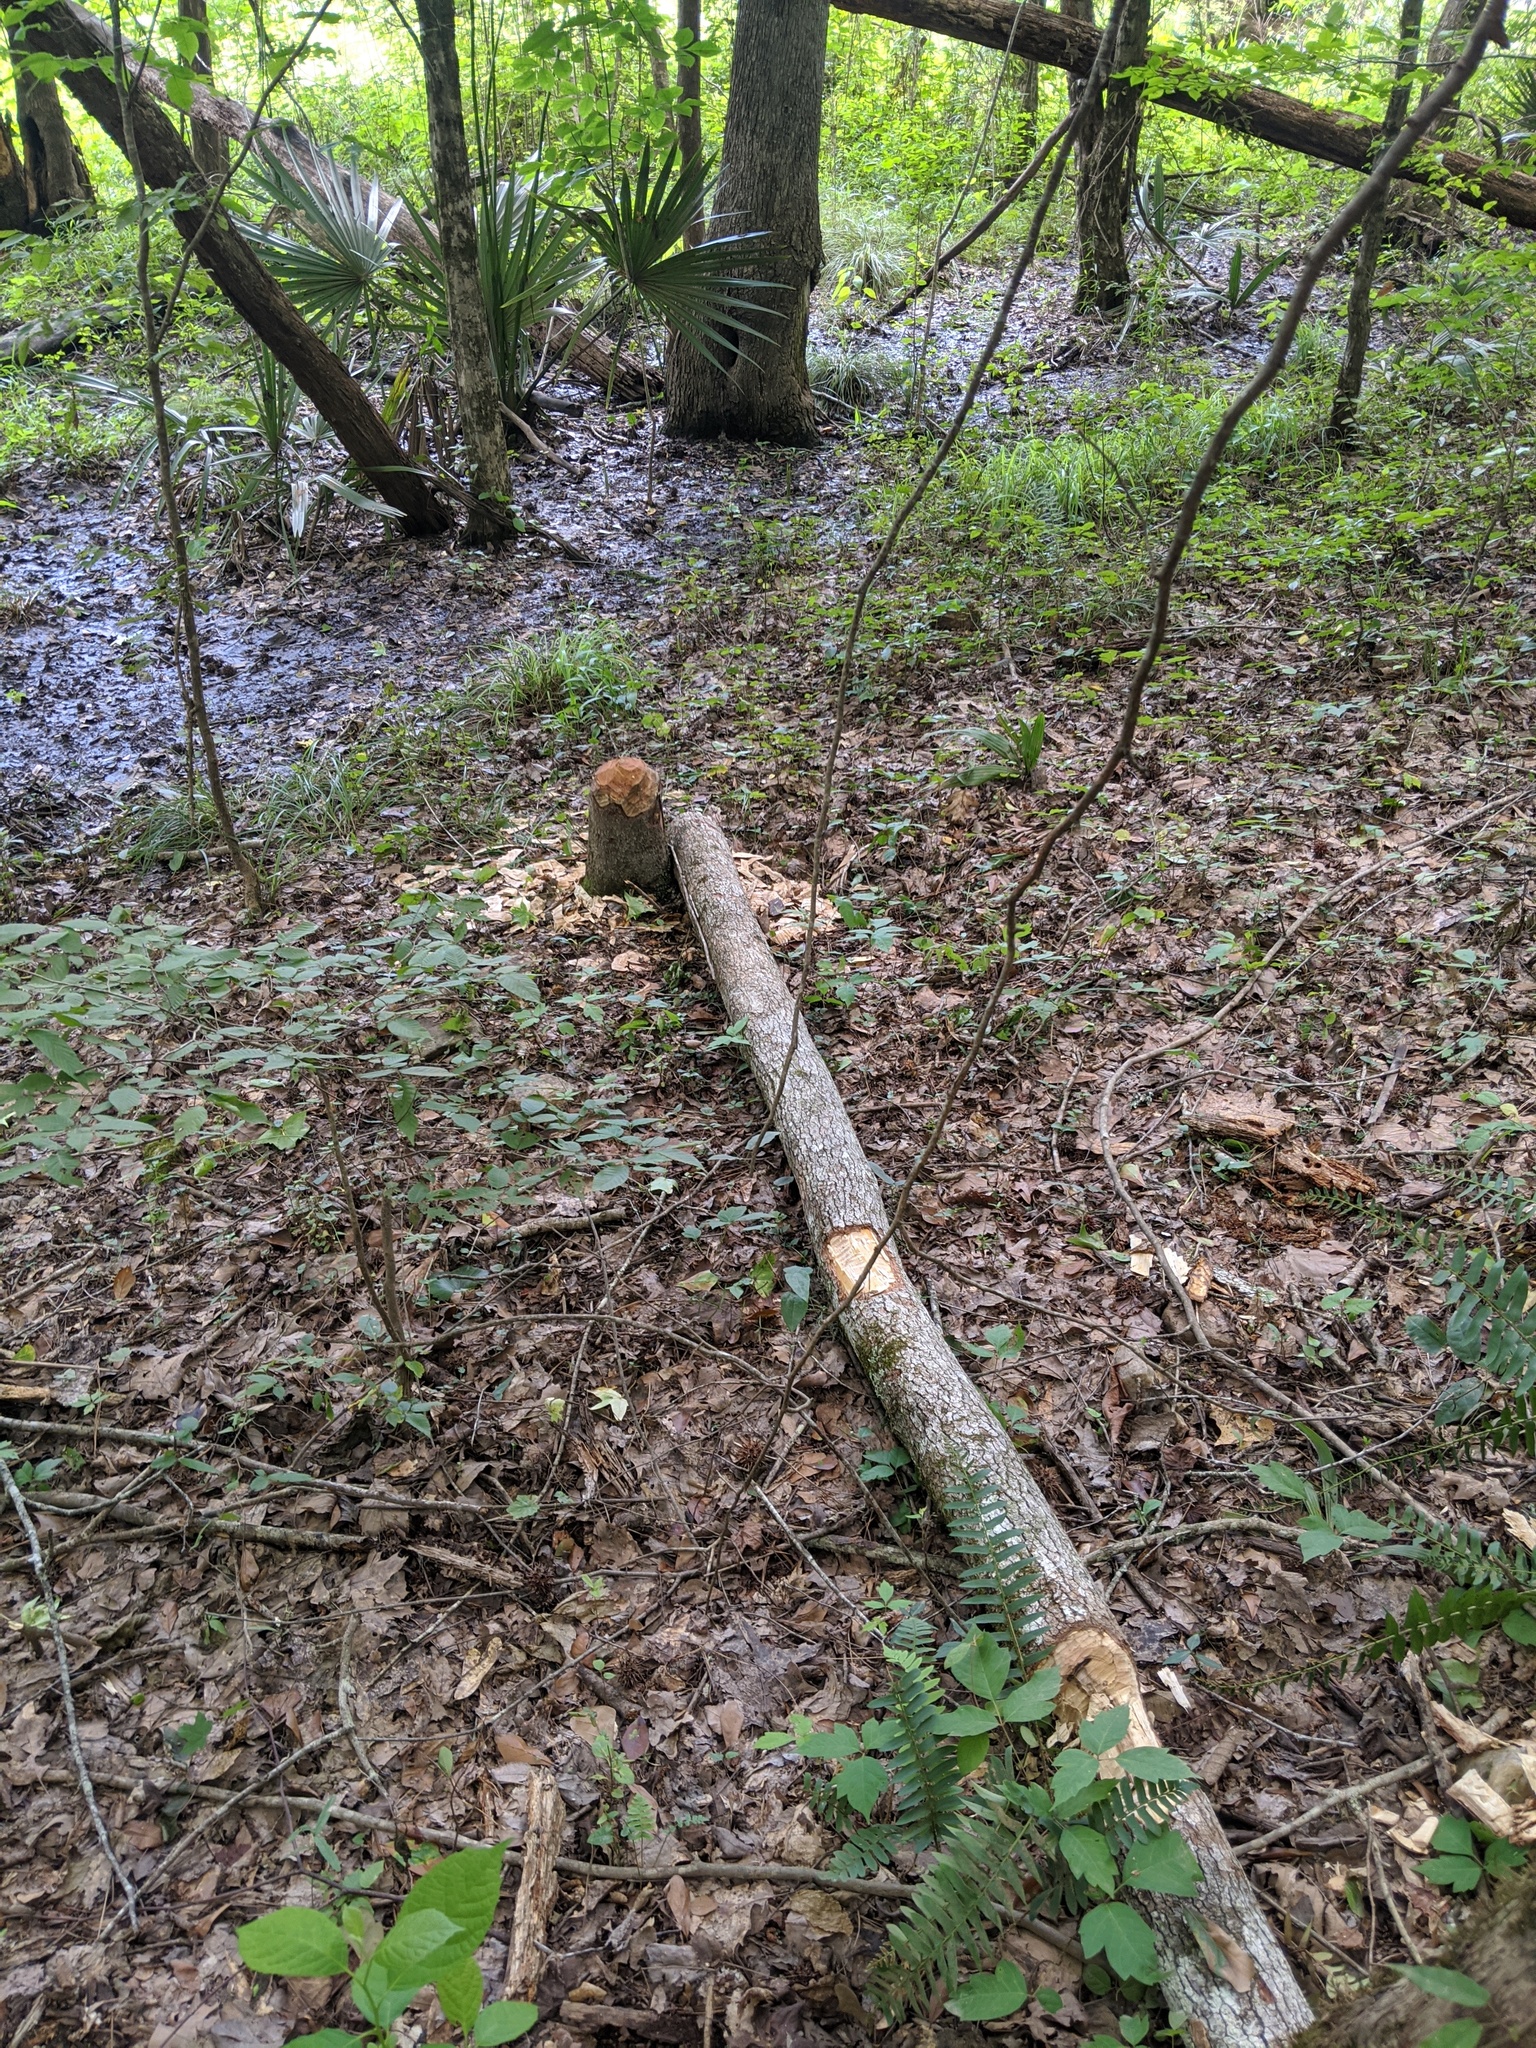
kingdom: Animalia
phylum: Chordata
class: Mammalia
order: Rodentia
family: Castoridae
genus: Castor
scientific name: Castor canadensis
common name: American beaver
